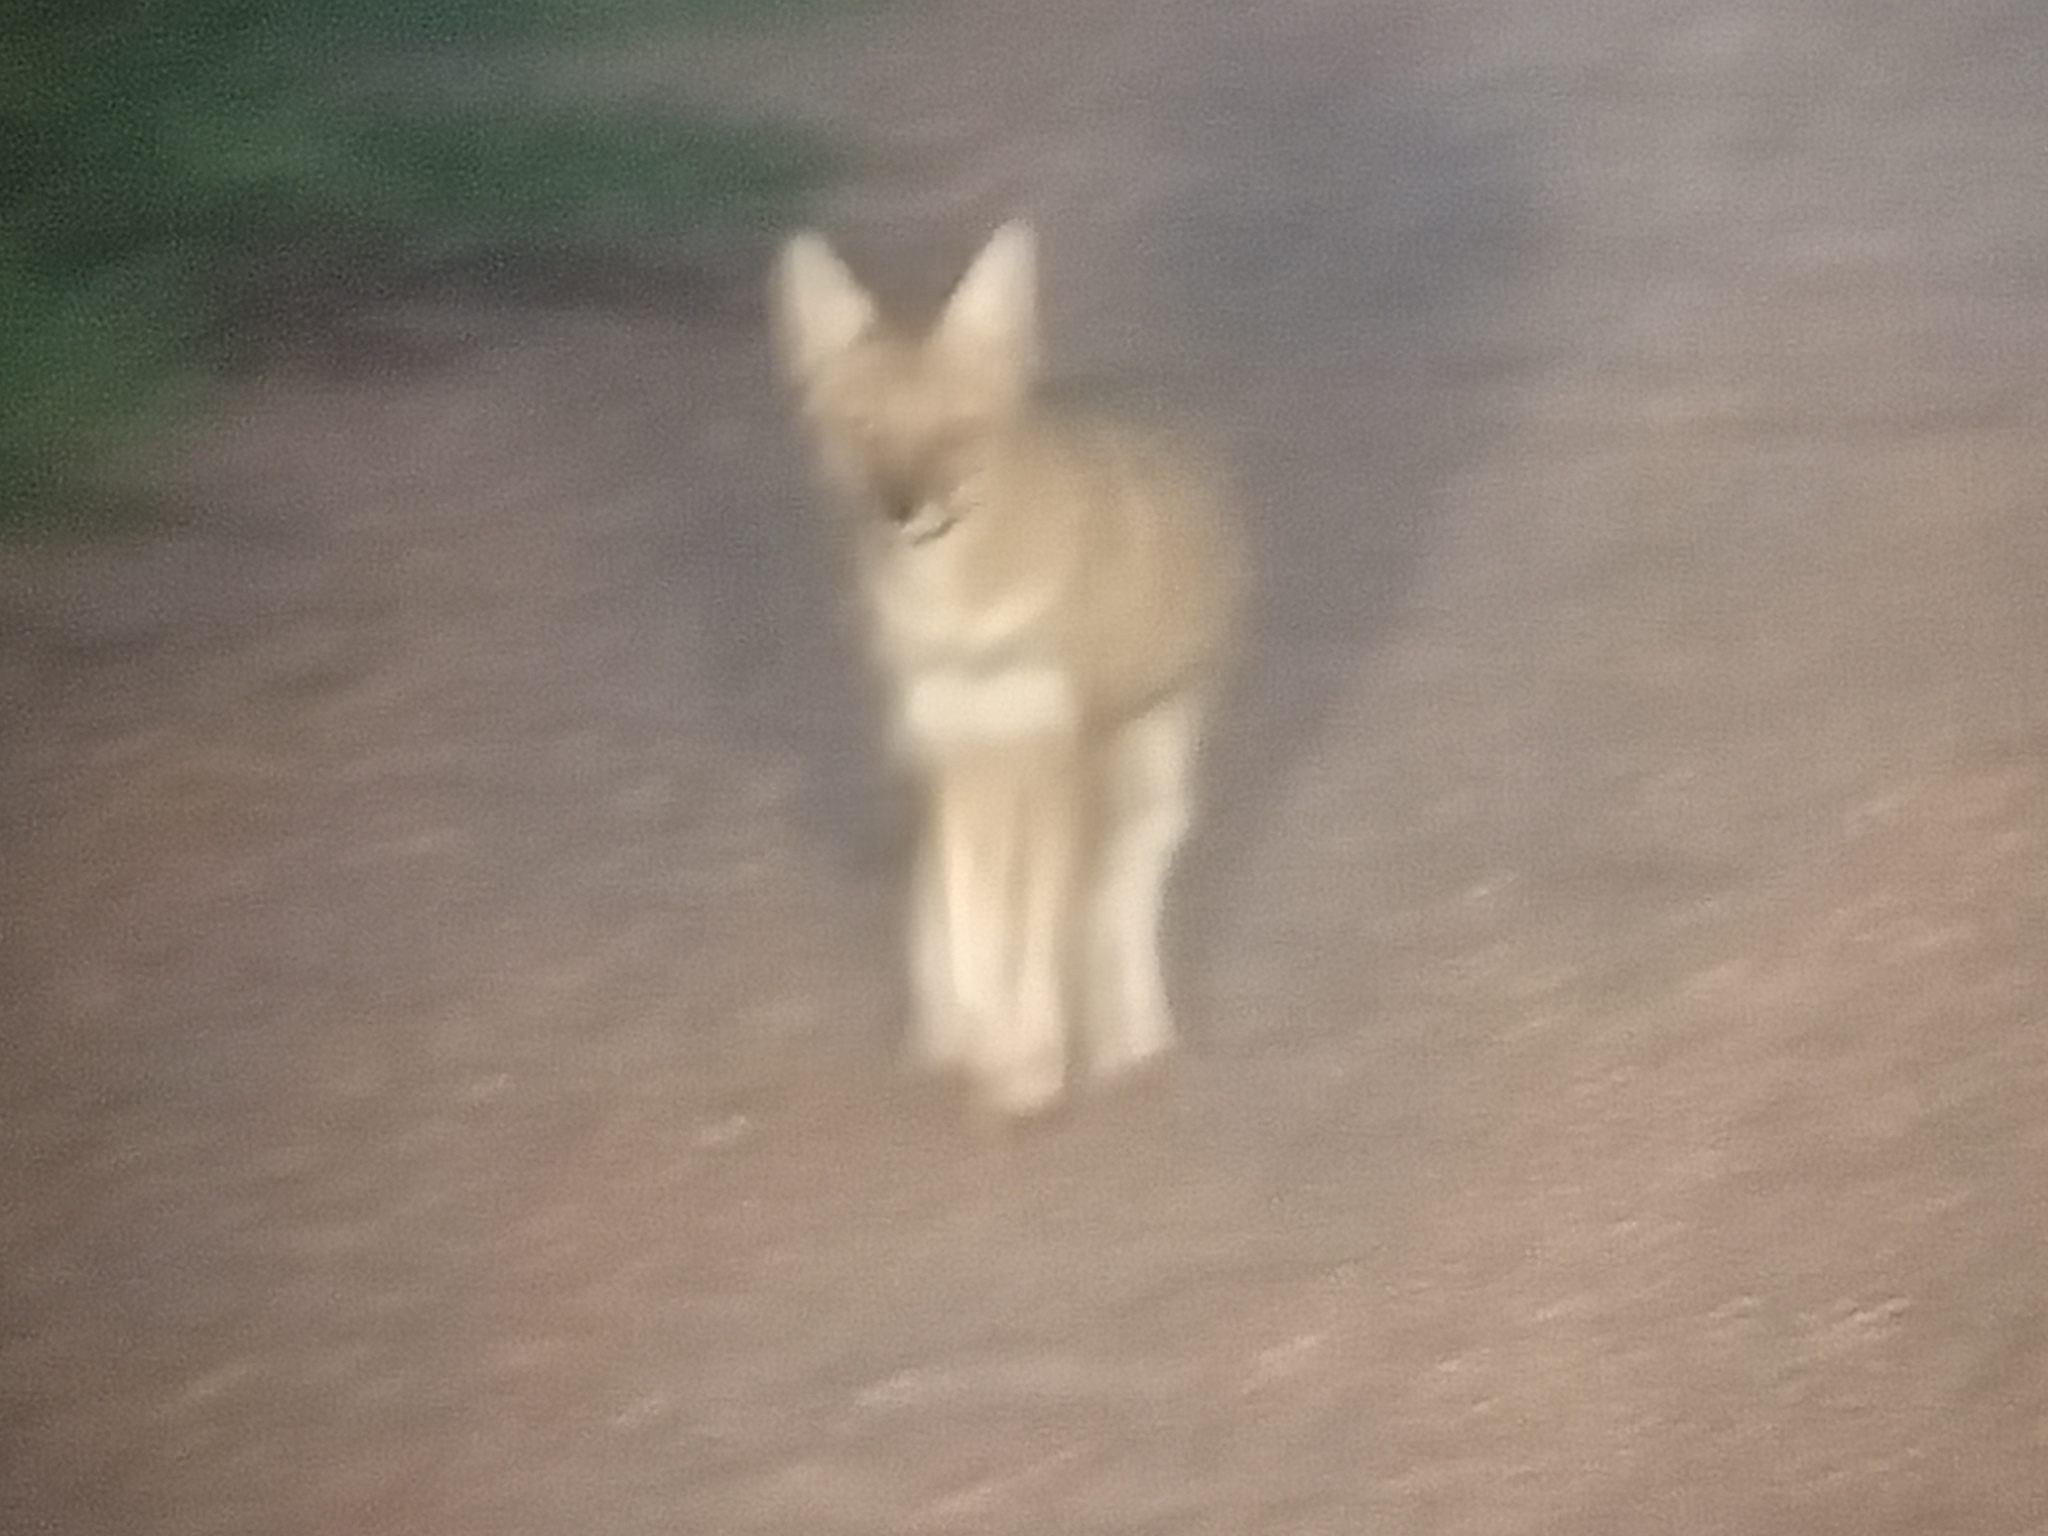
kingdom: Animalia
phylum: Chordata
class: Mammalia
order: Carnivora
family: Canidae
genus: Lycalopex
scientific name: Lycalopex gymnocercus
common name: Pampas fox
